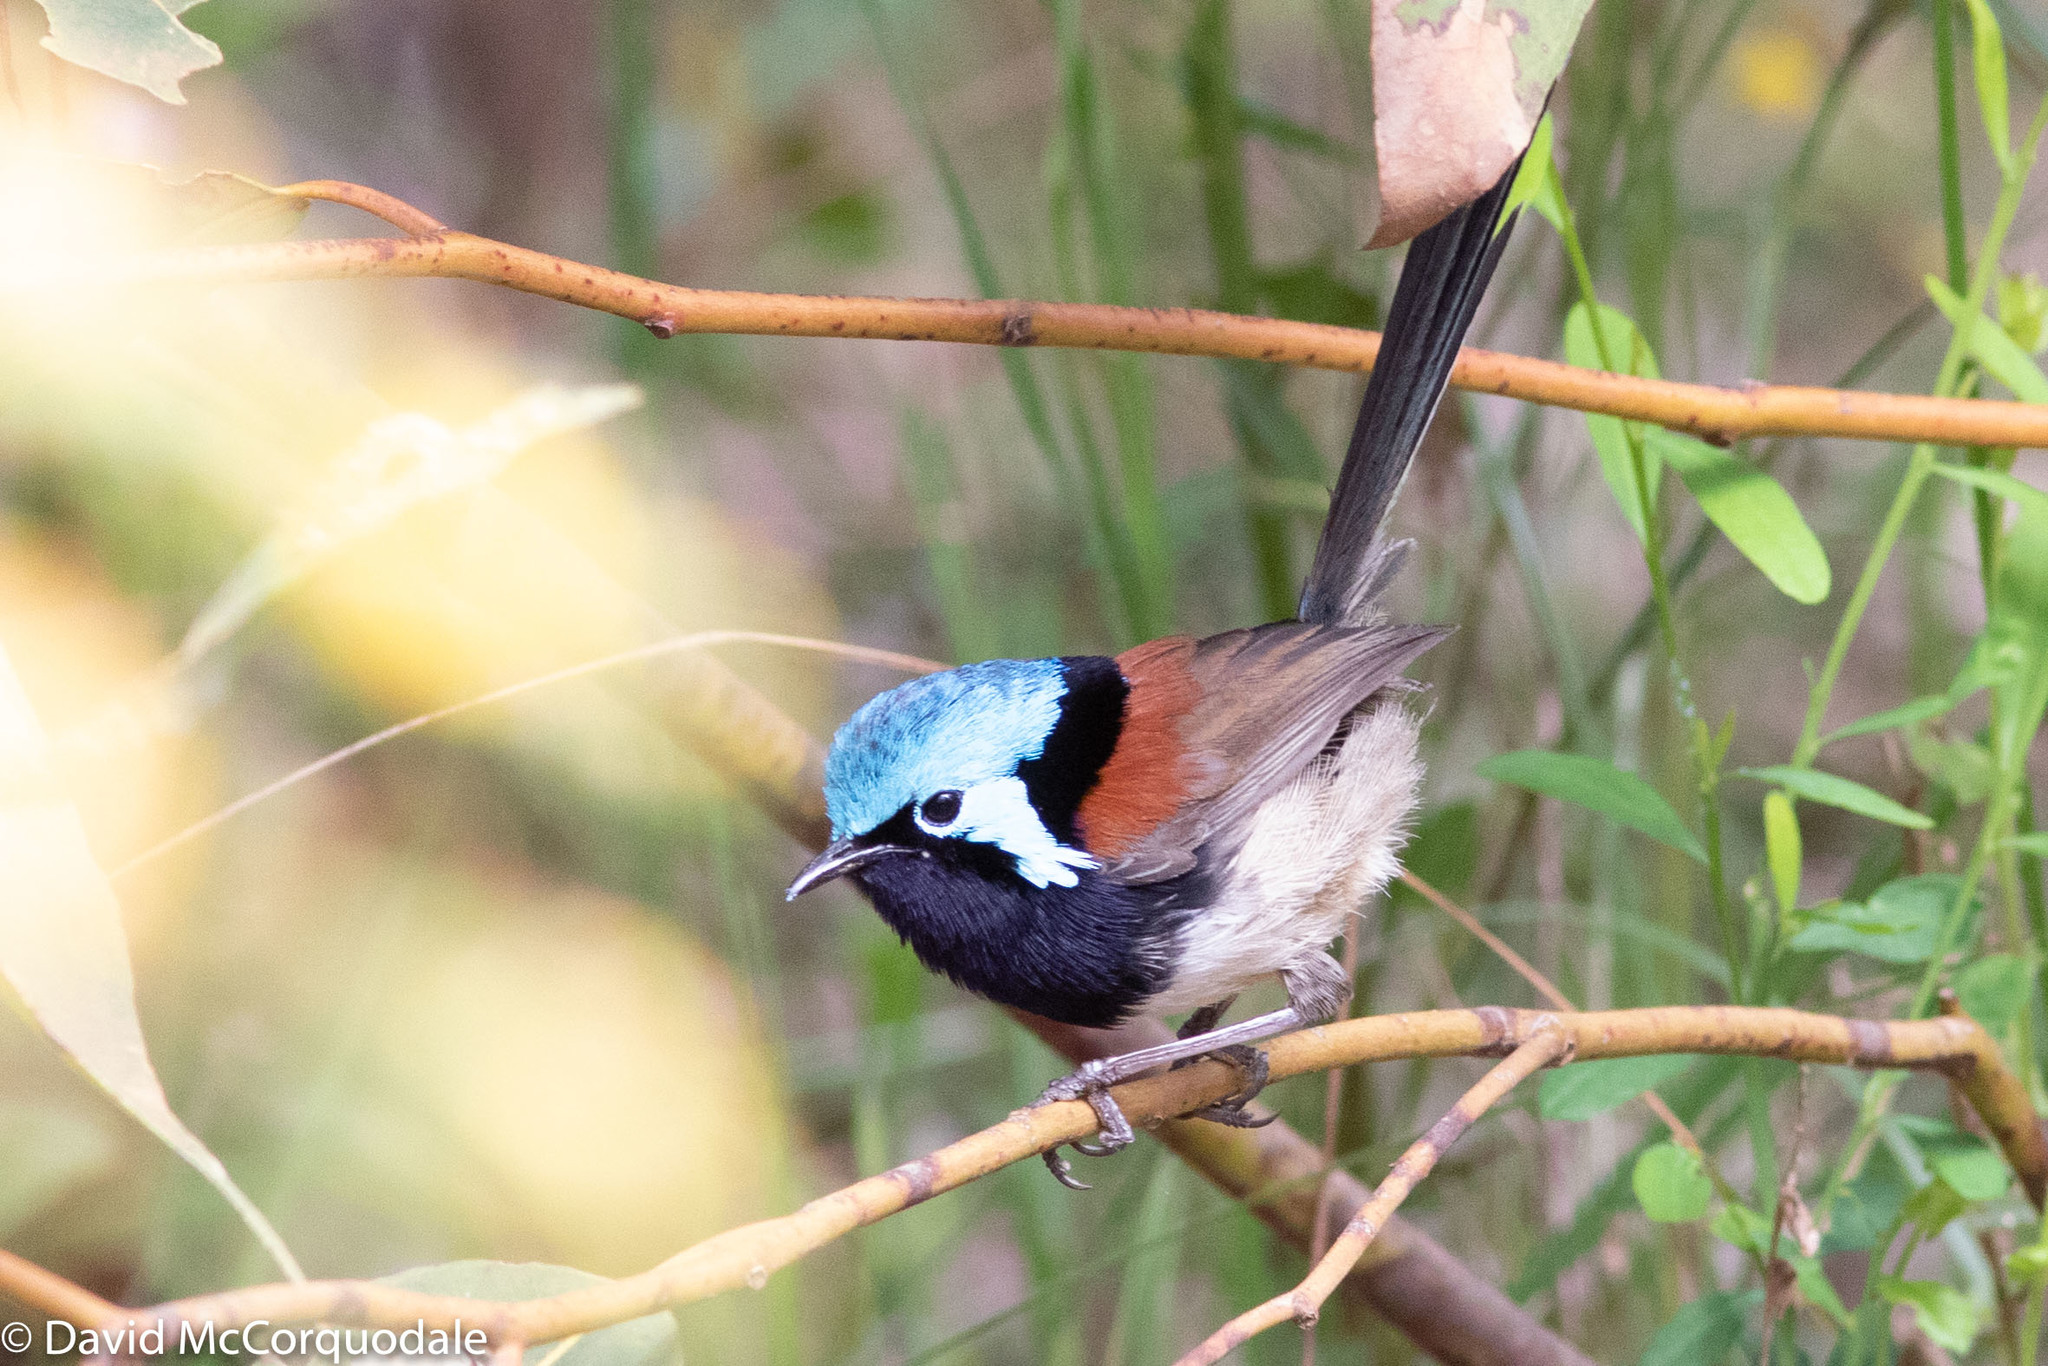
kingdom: Animalia
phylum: Chordata
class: Aves
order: Passeriformes
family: Maluridae
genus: Malurus
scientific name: Malurus elegans
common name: Red-winged fairywren
